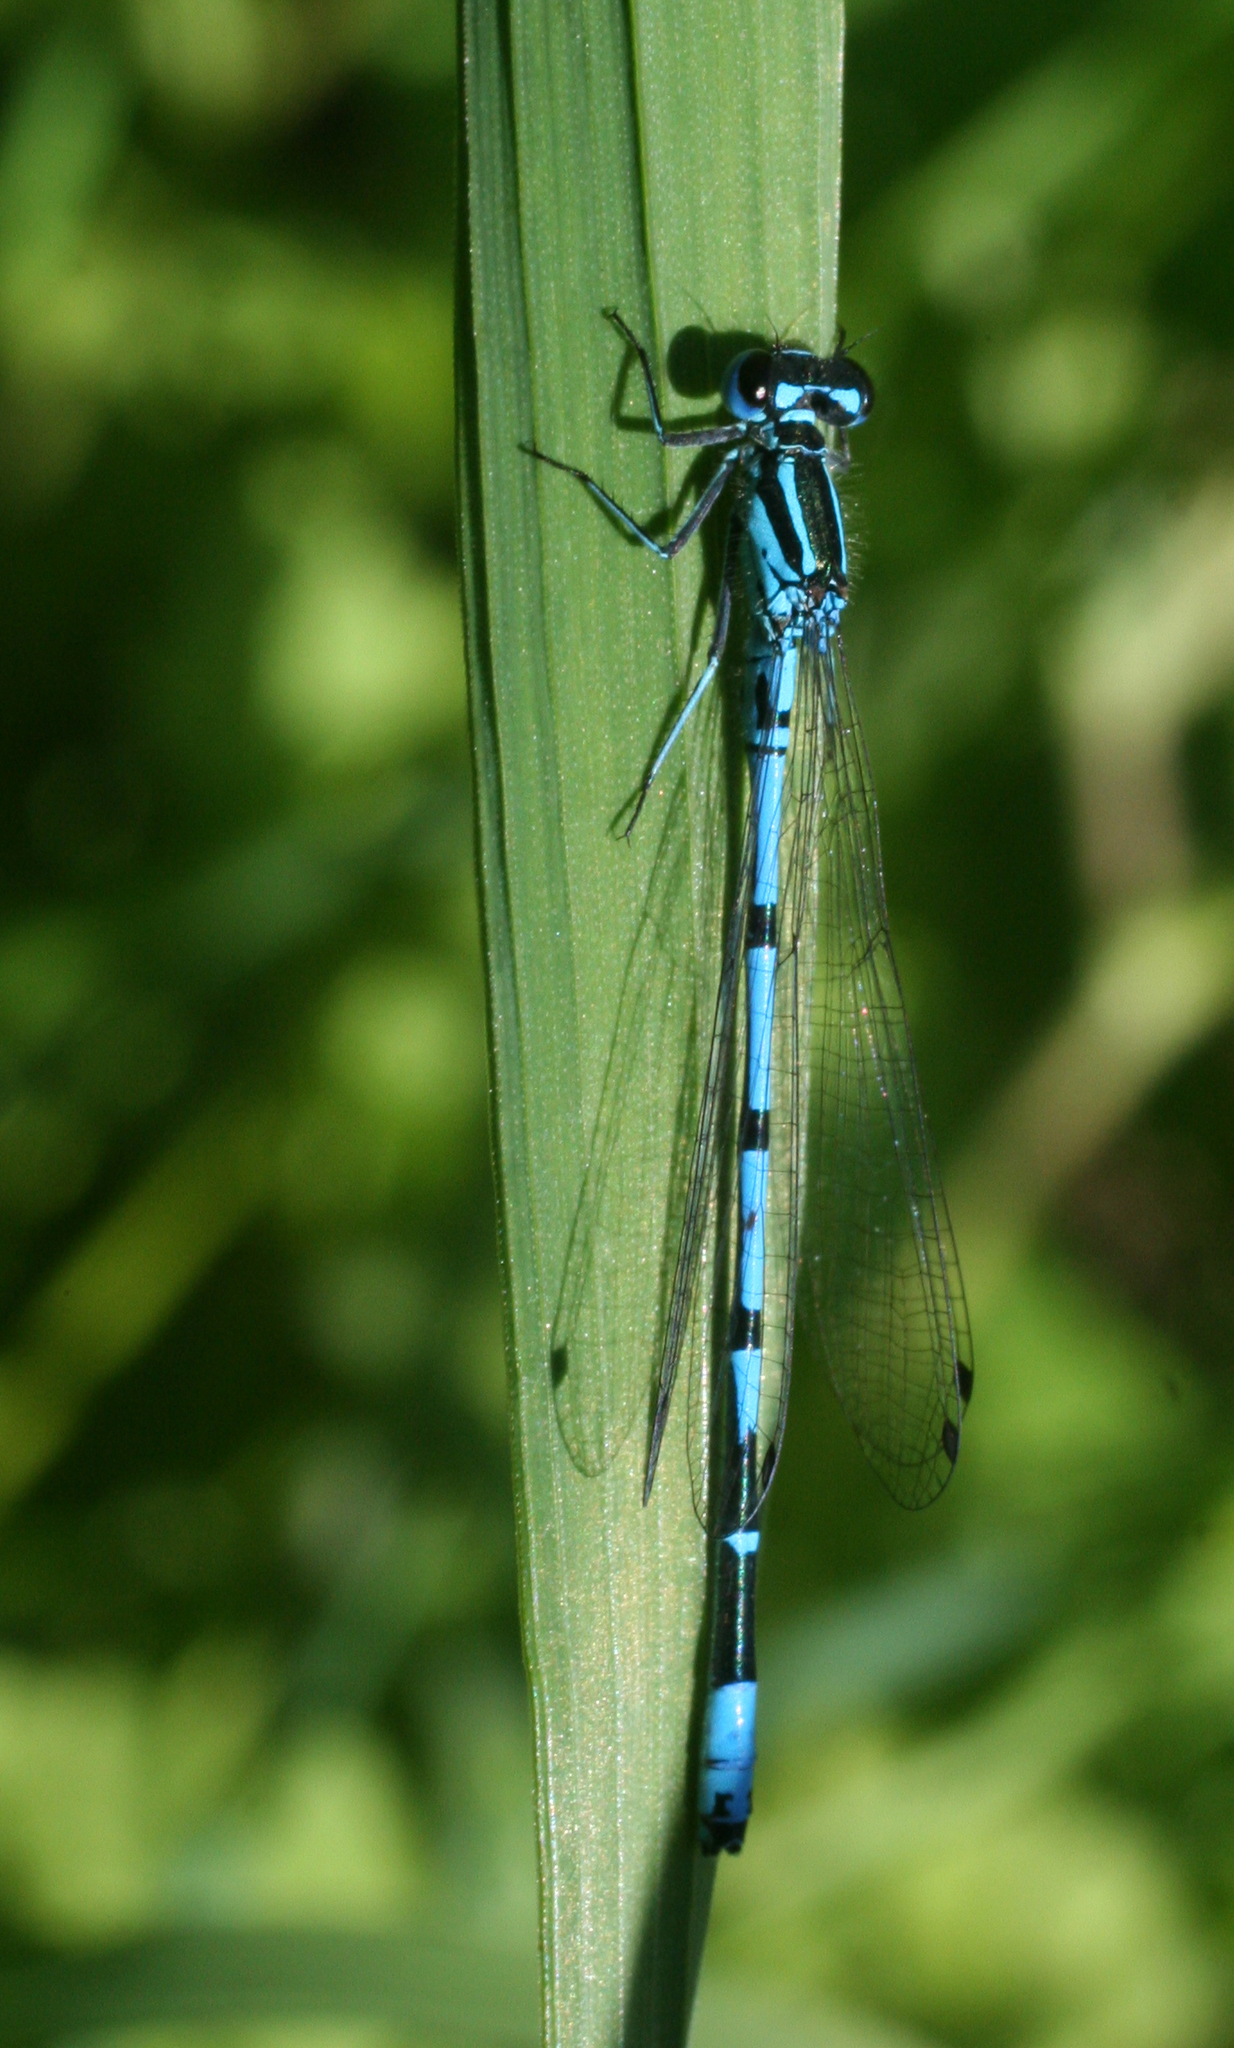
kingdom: Animalia
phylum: Arthropoda
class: Insecta
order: Odonata
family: Coenagrionidae
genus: Coenagrion
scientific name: Coenagrion puella
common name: Azure damselfly
